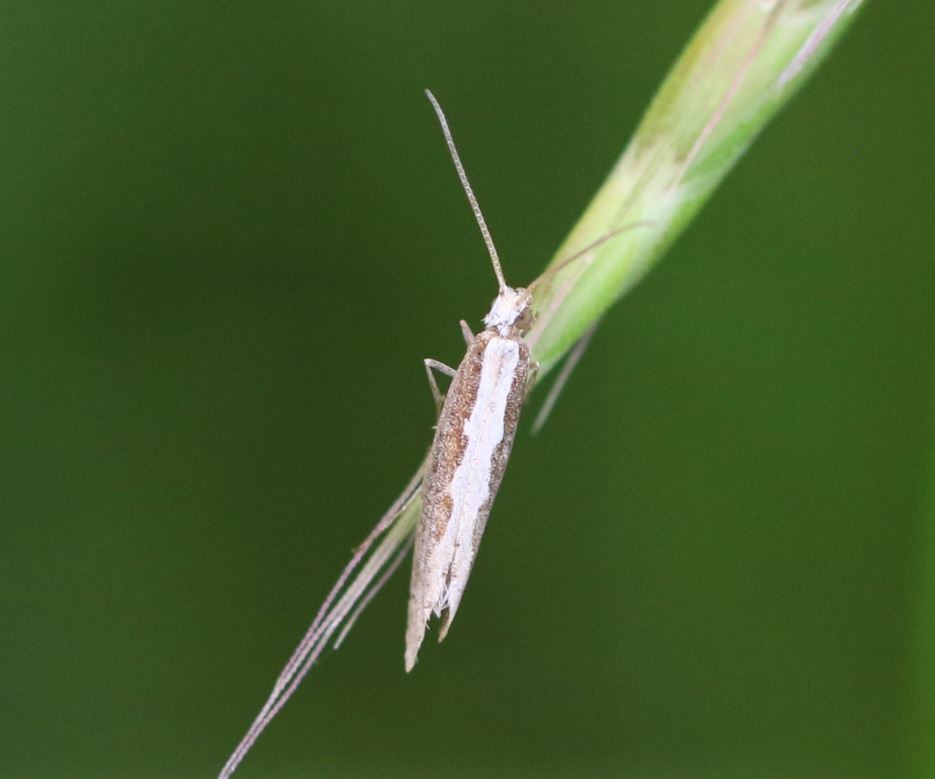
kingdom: Animalia
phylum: Arthropoda
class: Insecta
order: Lepidoptera
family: Plutellidae
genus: Plutella
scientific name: Plutella xylostella
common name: Diamond-back moth
